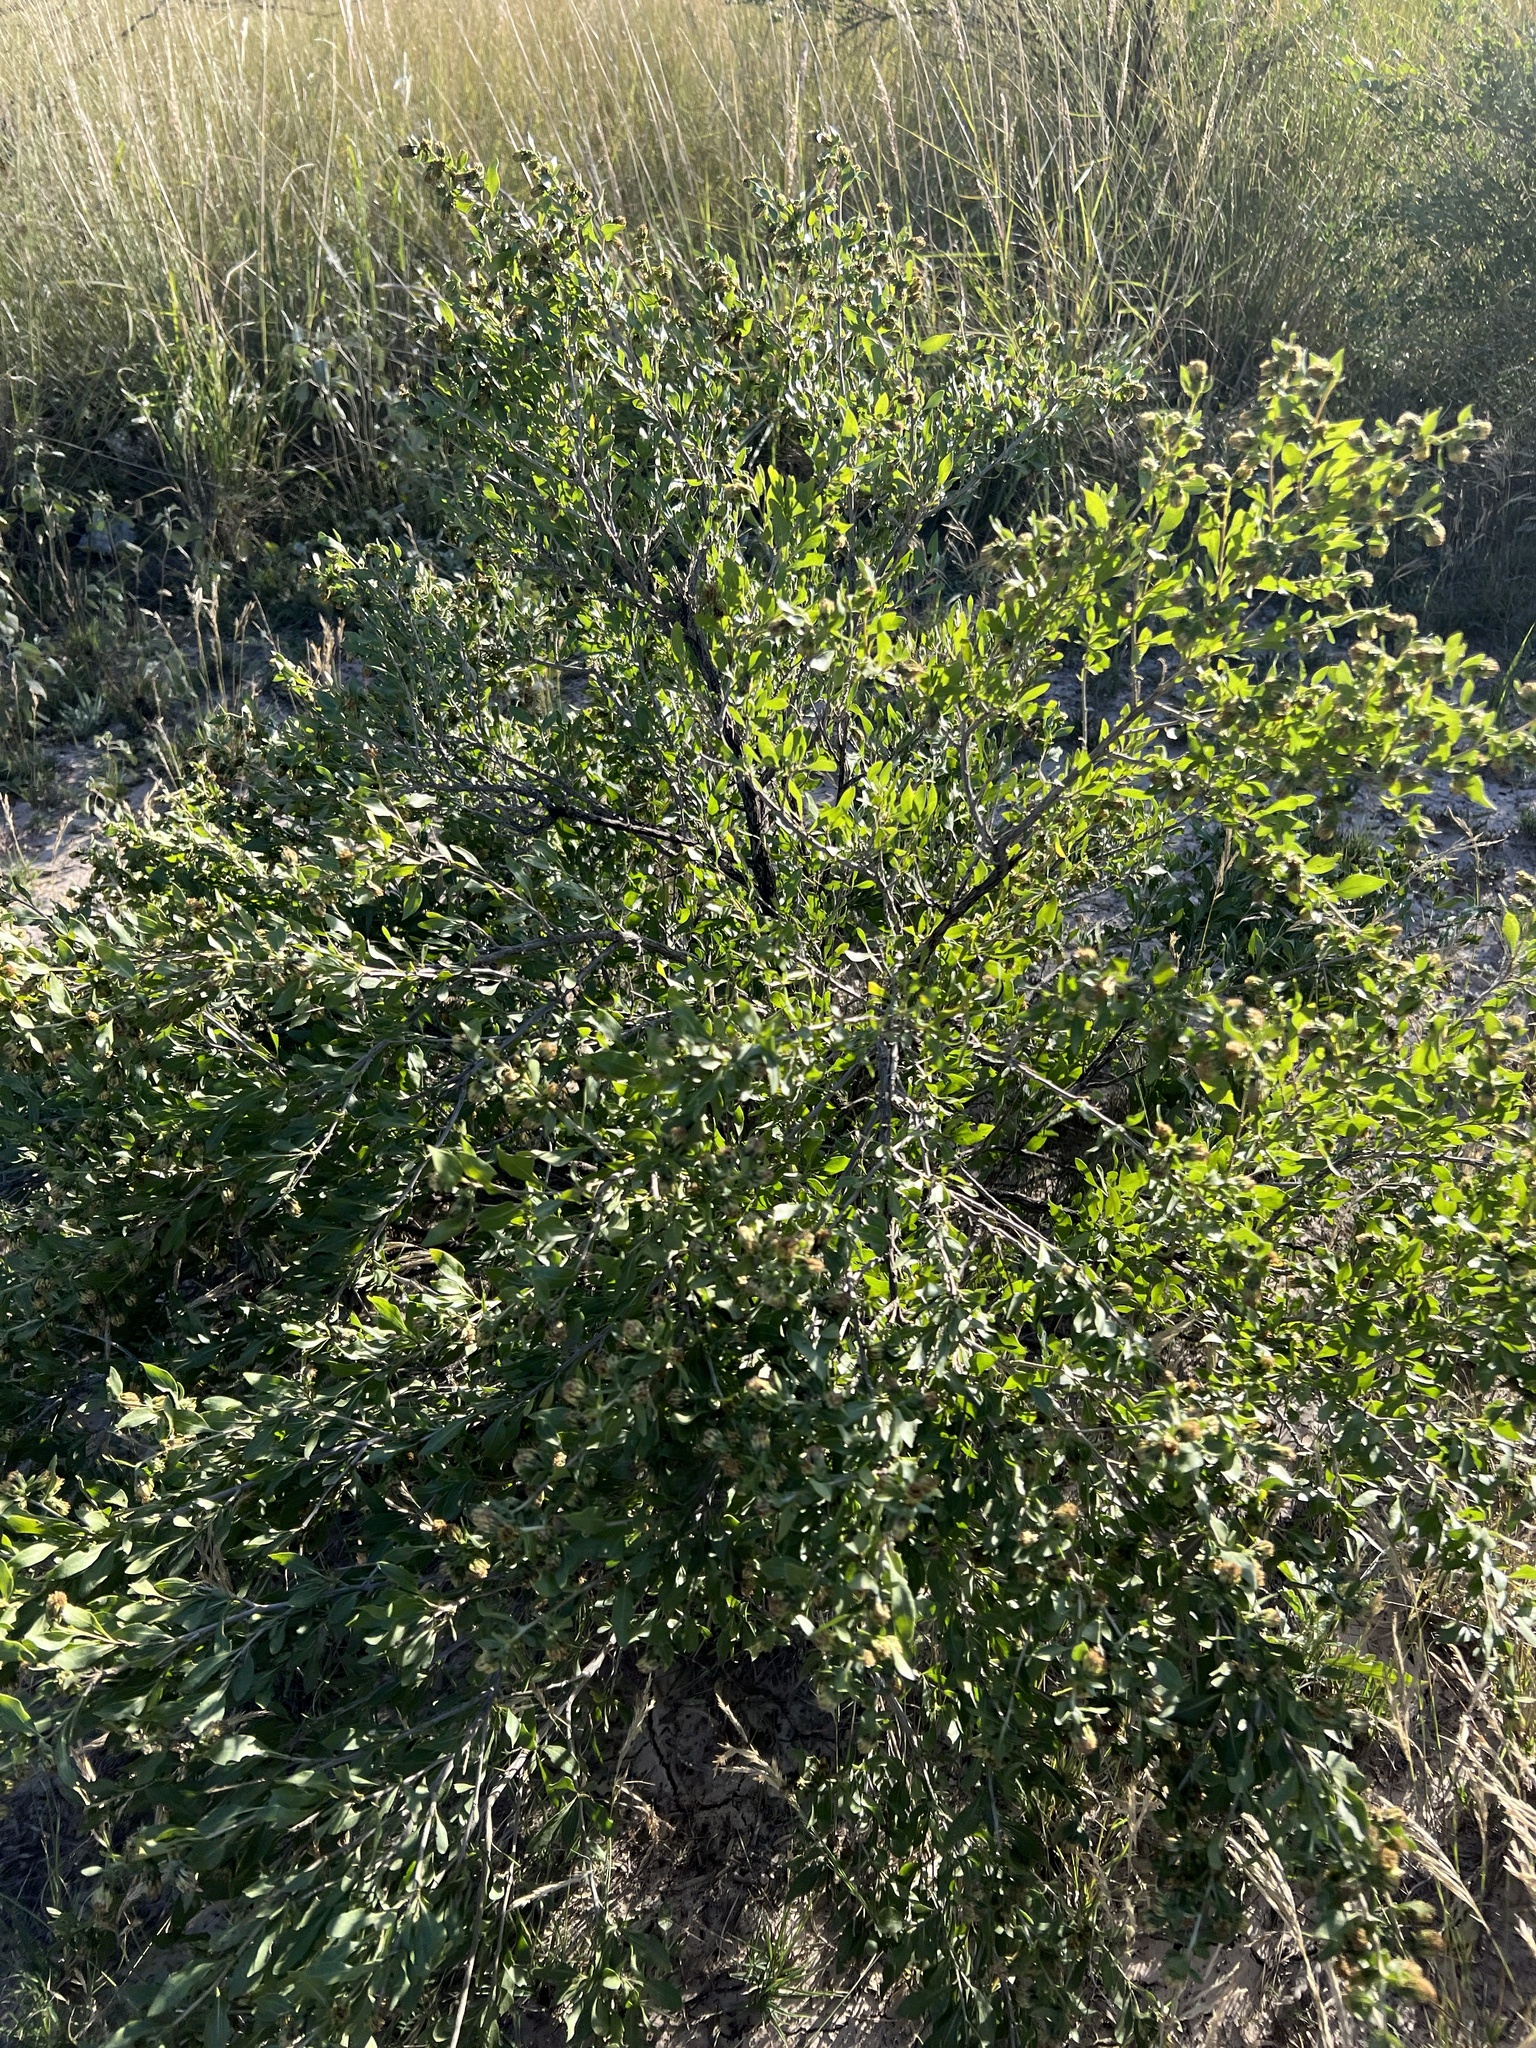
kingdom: Plantae
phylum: Tracheophyta
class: Magnoliopsida
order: Asterales
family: Asteraceae
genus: Flourensia
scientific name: Flourensia cernua
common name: Varnishbush
